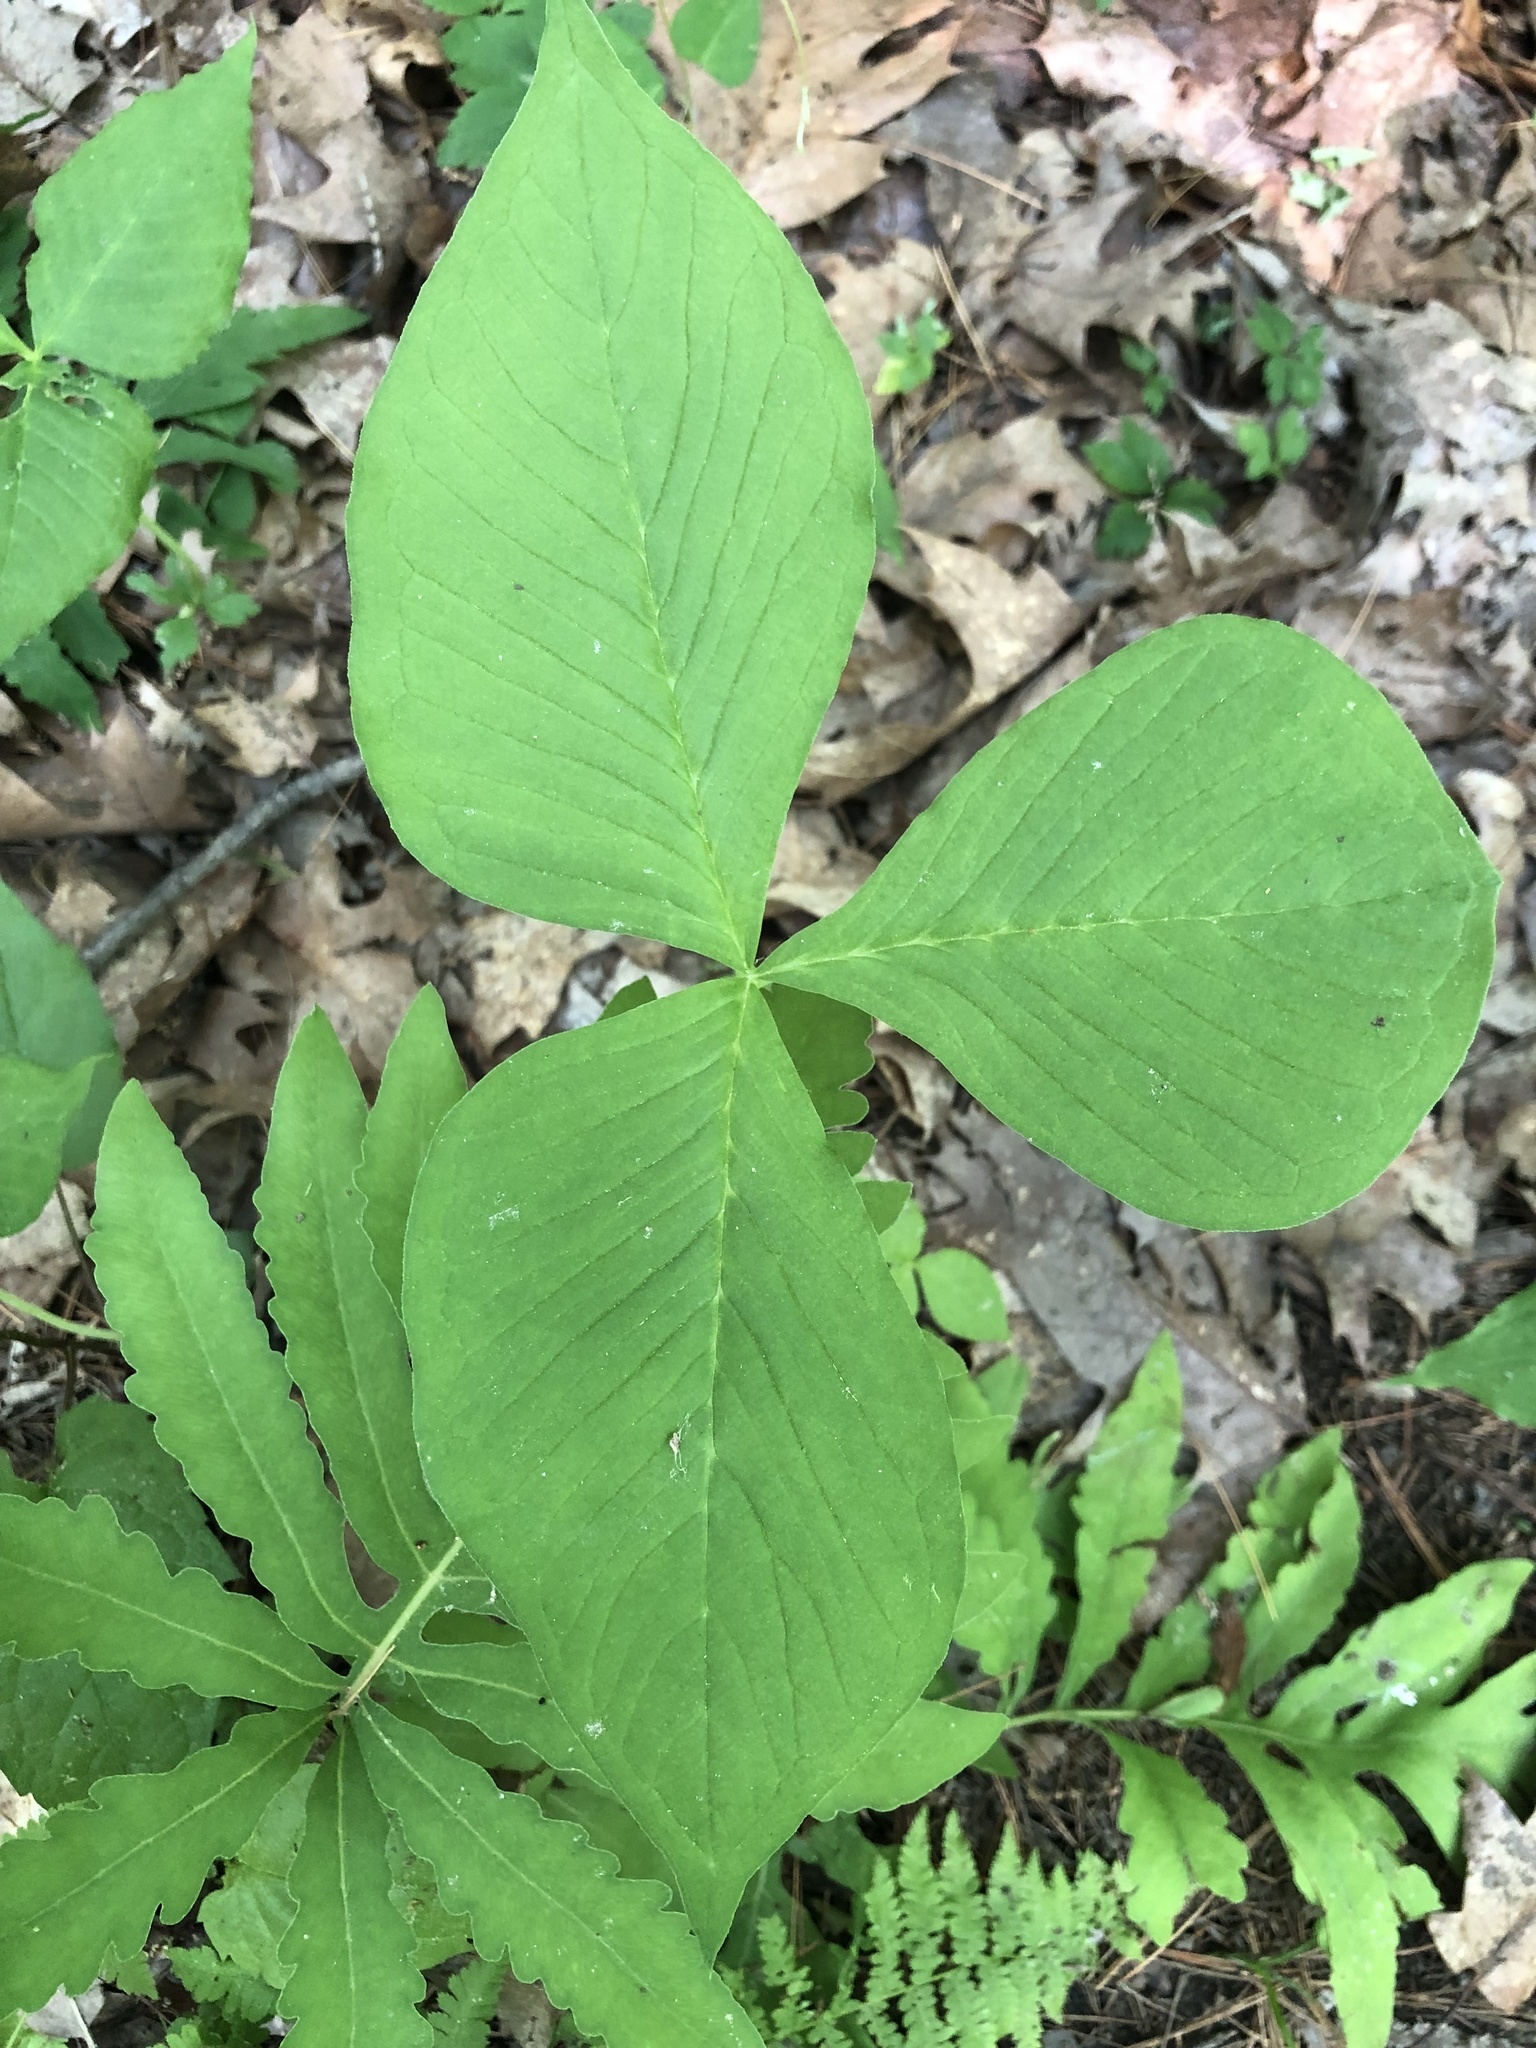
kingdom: Plantae
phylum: Tracheophyta
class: Liliopsida
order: Alismatales
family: Araceae
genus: Arisaema
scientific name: Arisaema triphyllum
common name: Jack-in-the-pulpit
